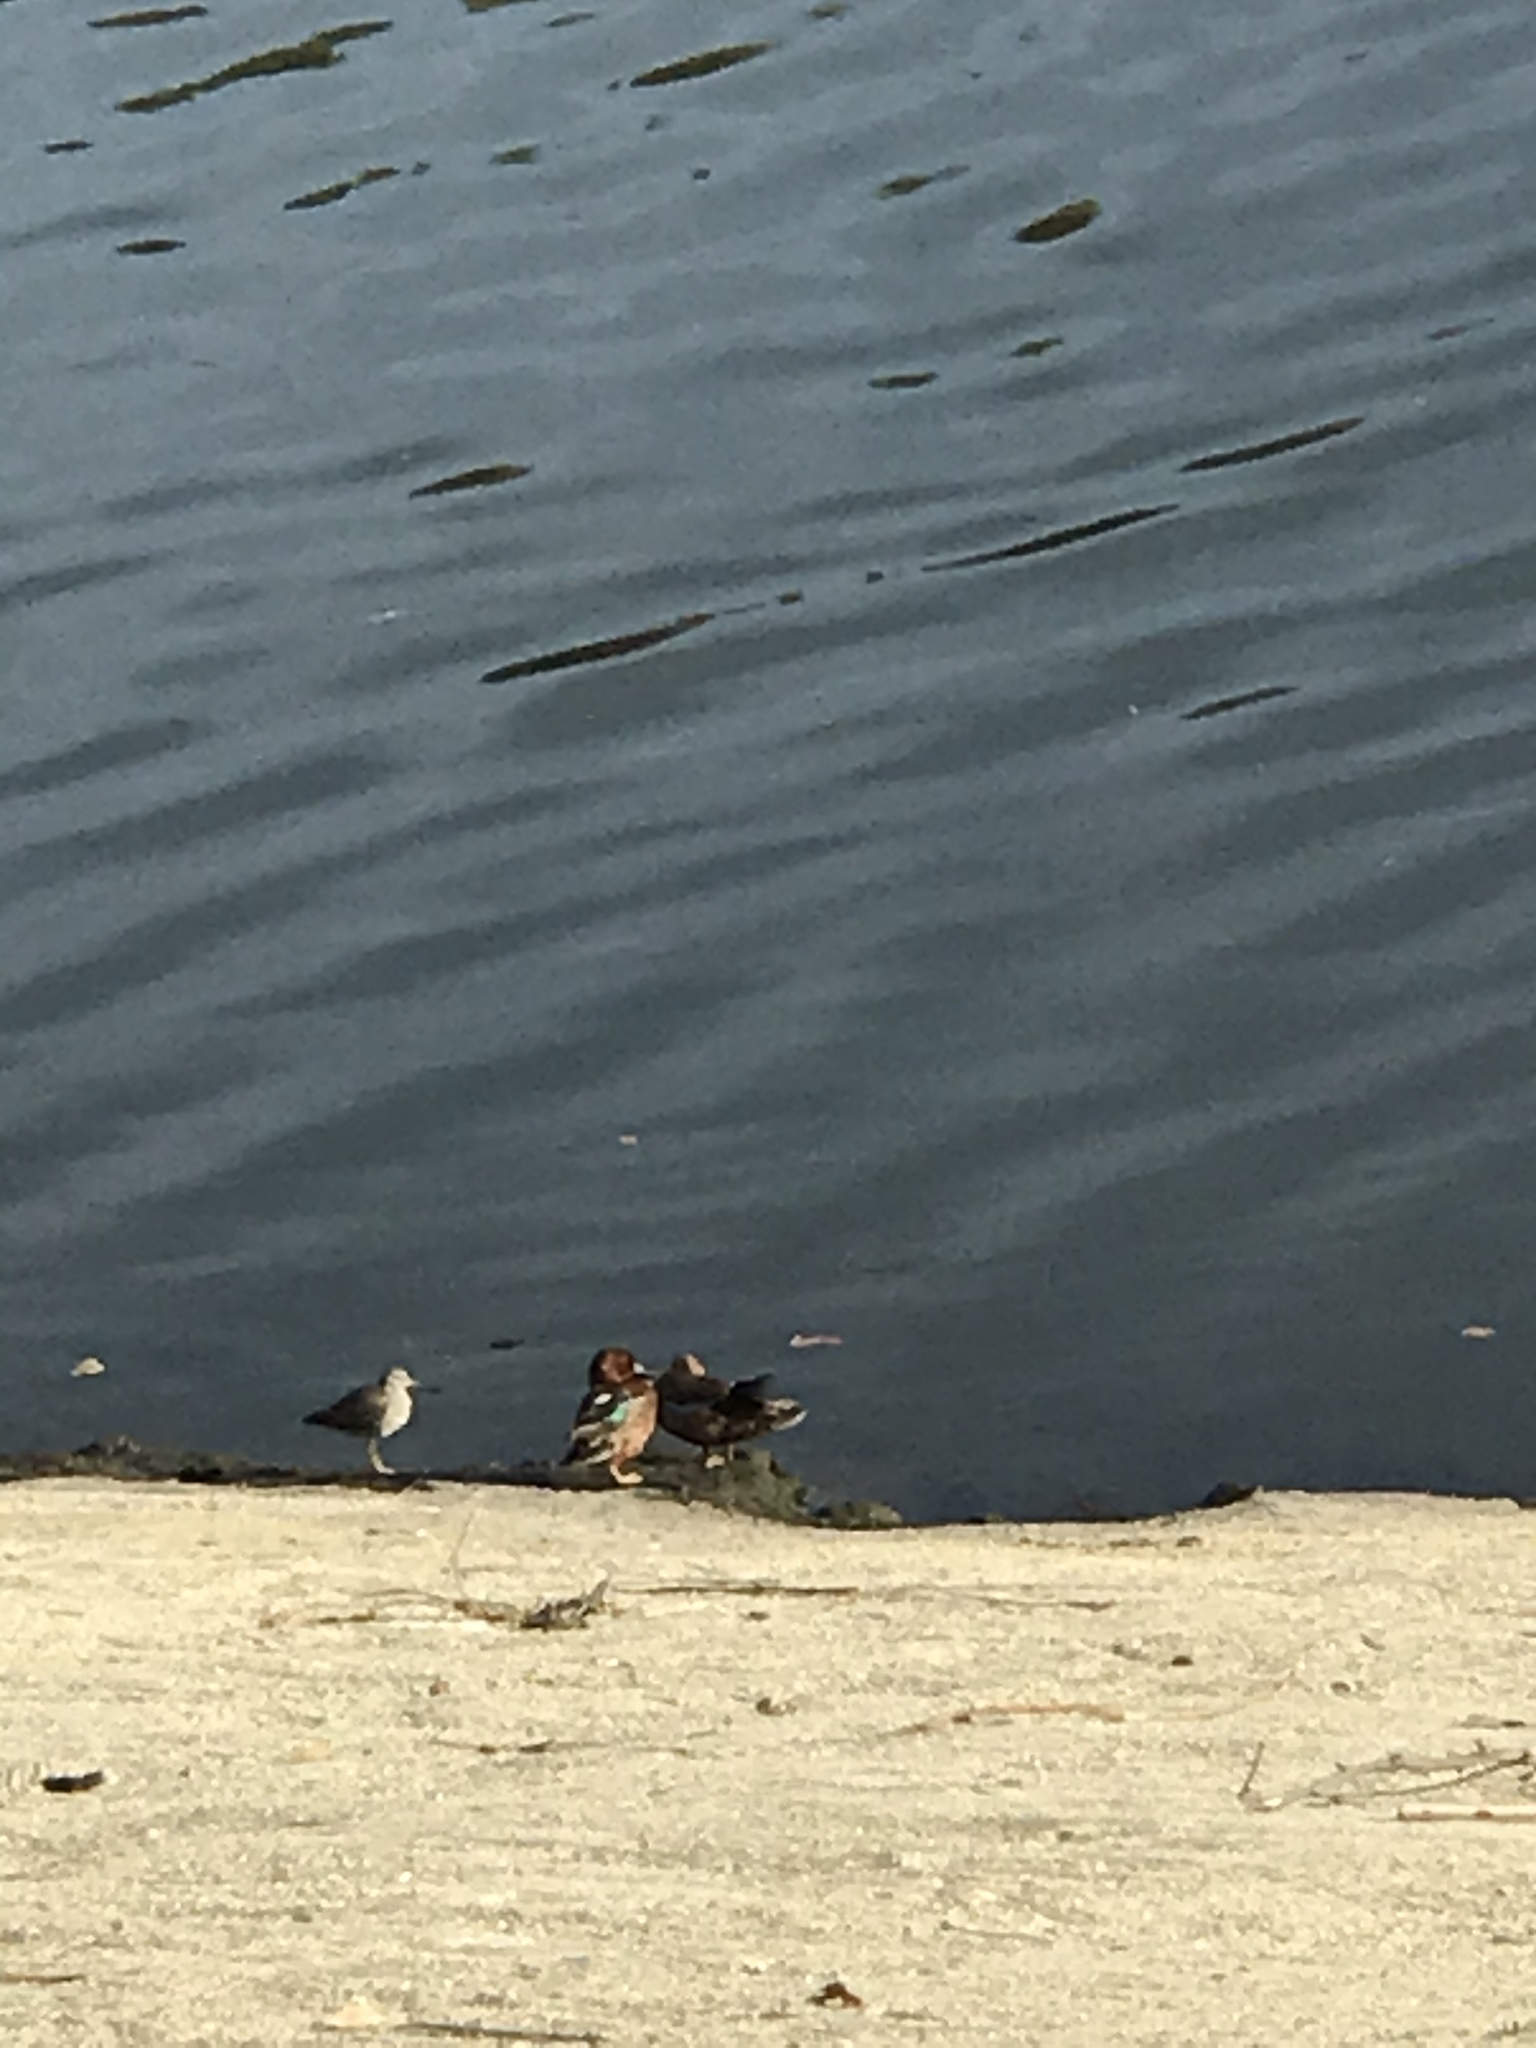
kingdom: Animalia
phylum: Chordata
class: Aves
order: Anseriformes
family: Anatidae
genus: Spatula
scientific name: Spatula cyanoptera
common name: Cinnamon teal
